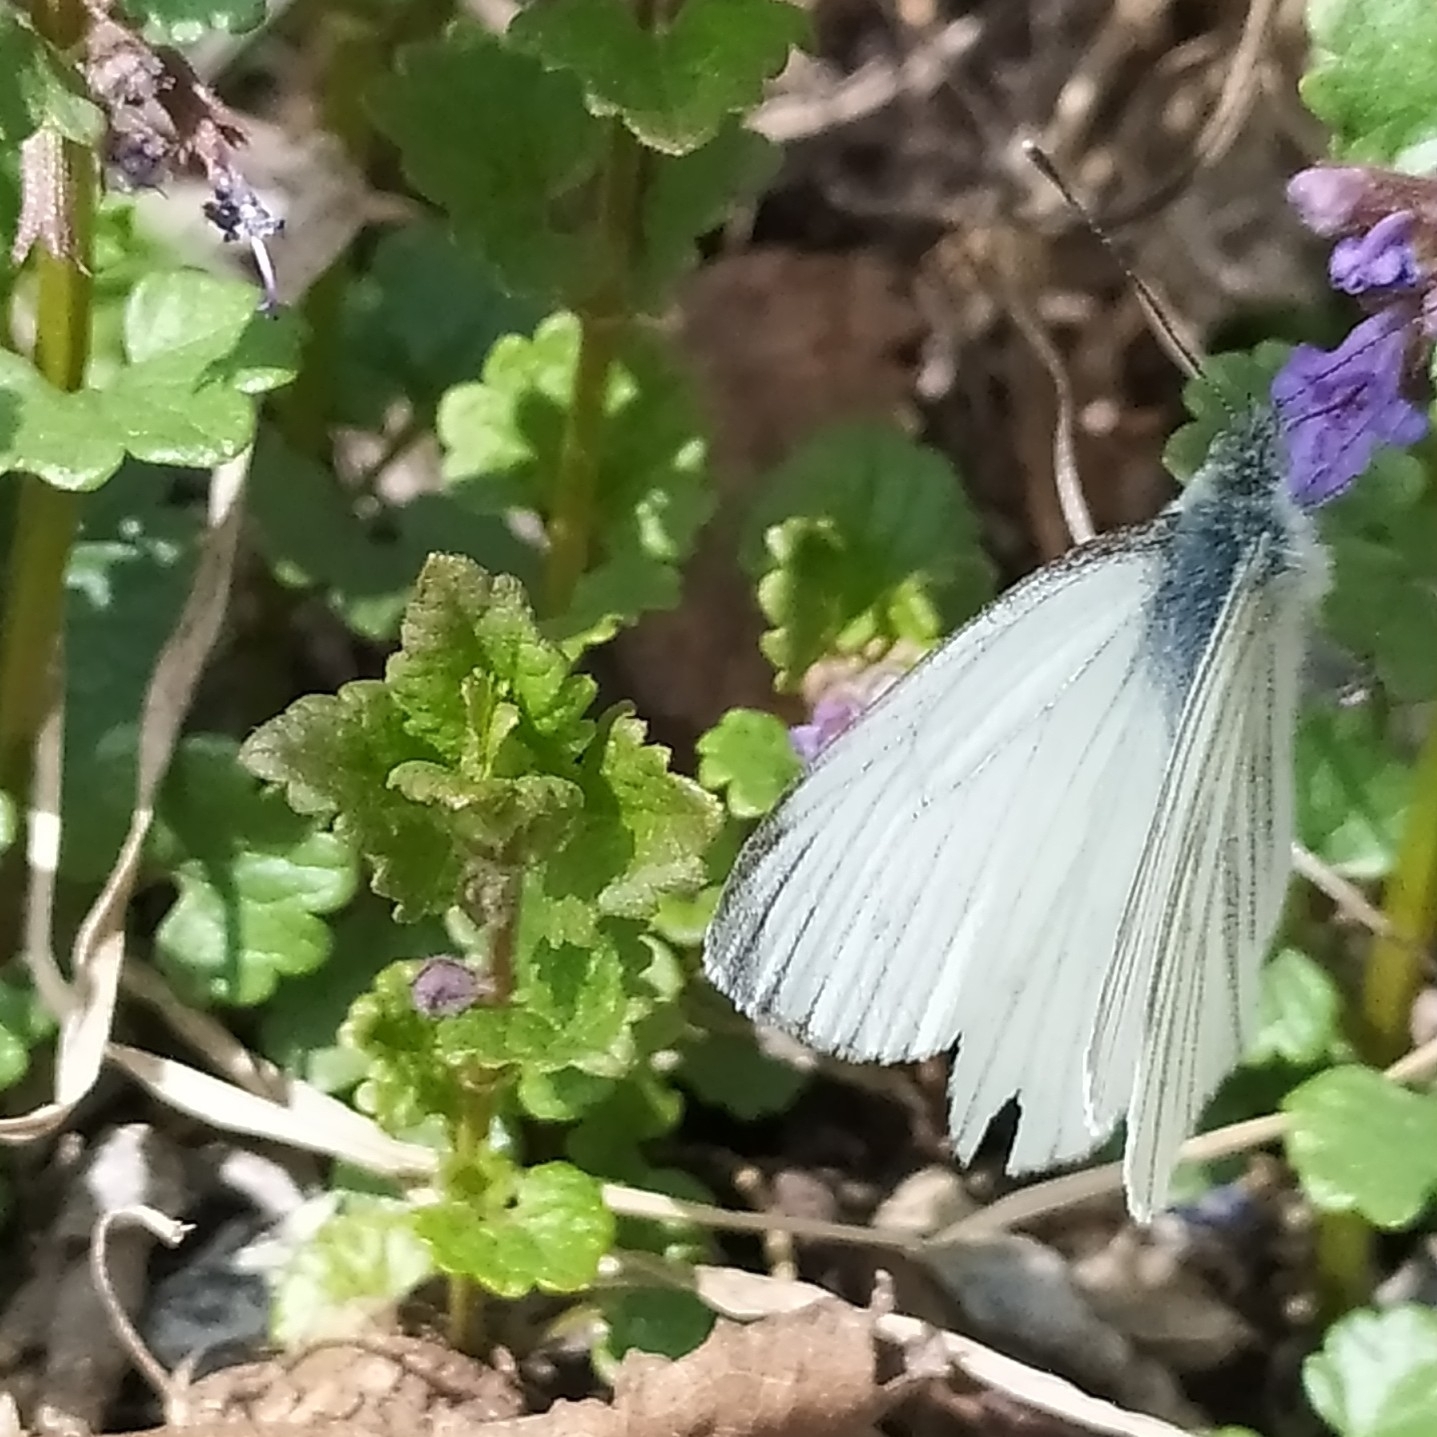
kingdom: Animalia
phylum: Arthropoda
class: Insecta
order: Lepidoptera
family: Pieridae
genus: Pieris
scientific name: Pieris napi
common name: Green-veined white
